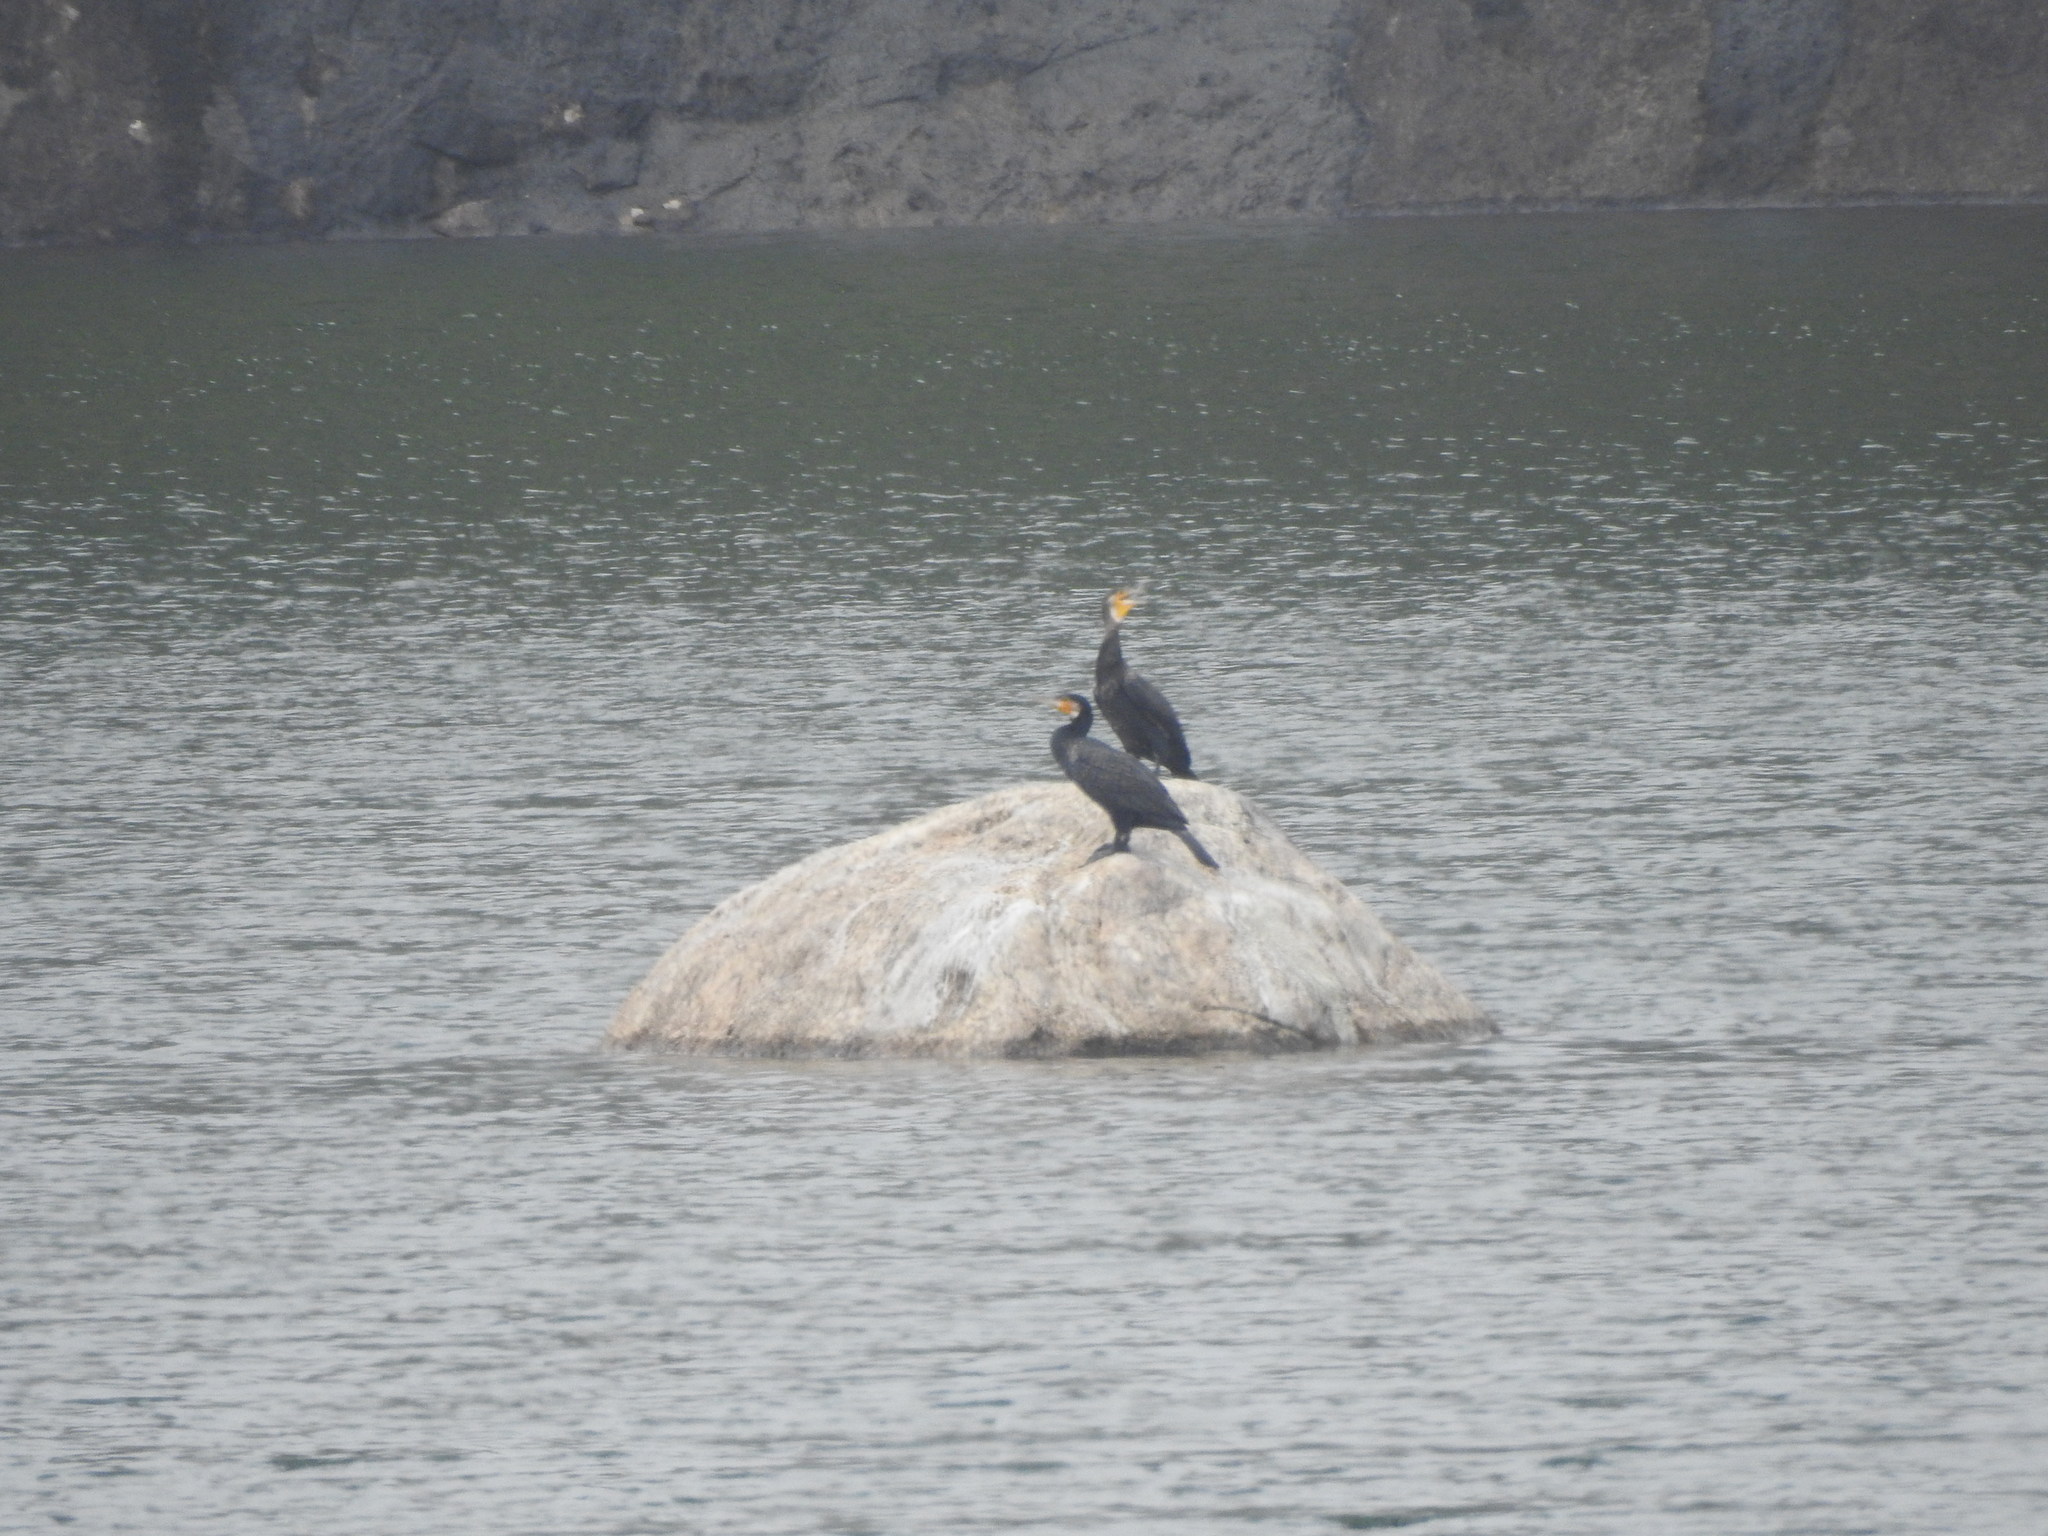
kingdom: Animalia
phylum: Chordata
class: Aves
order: Suliformes
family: Phalacrocoracidae
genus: Phalacrocorax
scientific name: Phalacrocorax carbo
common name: Great cormorant
